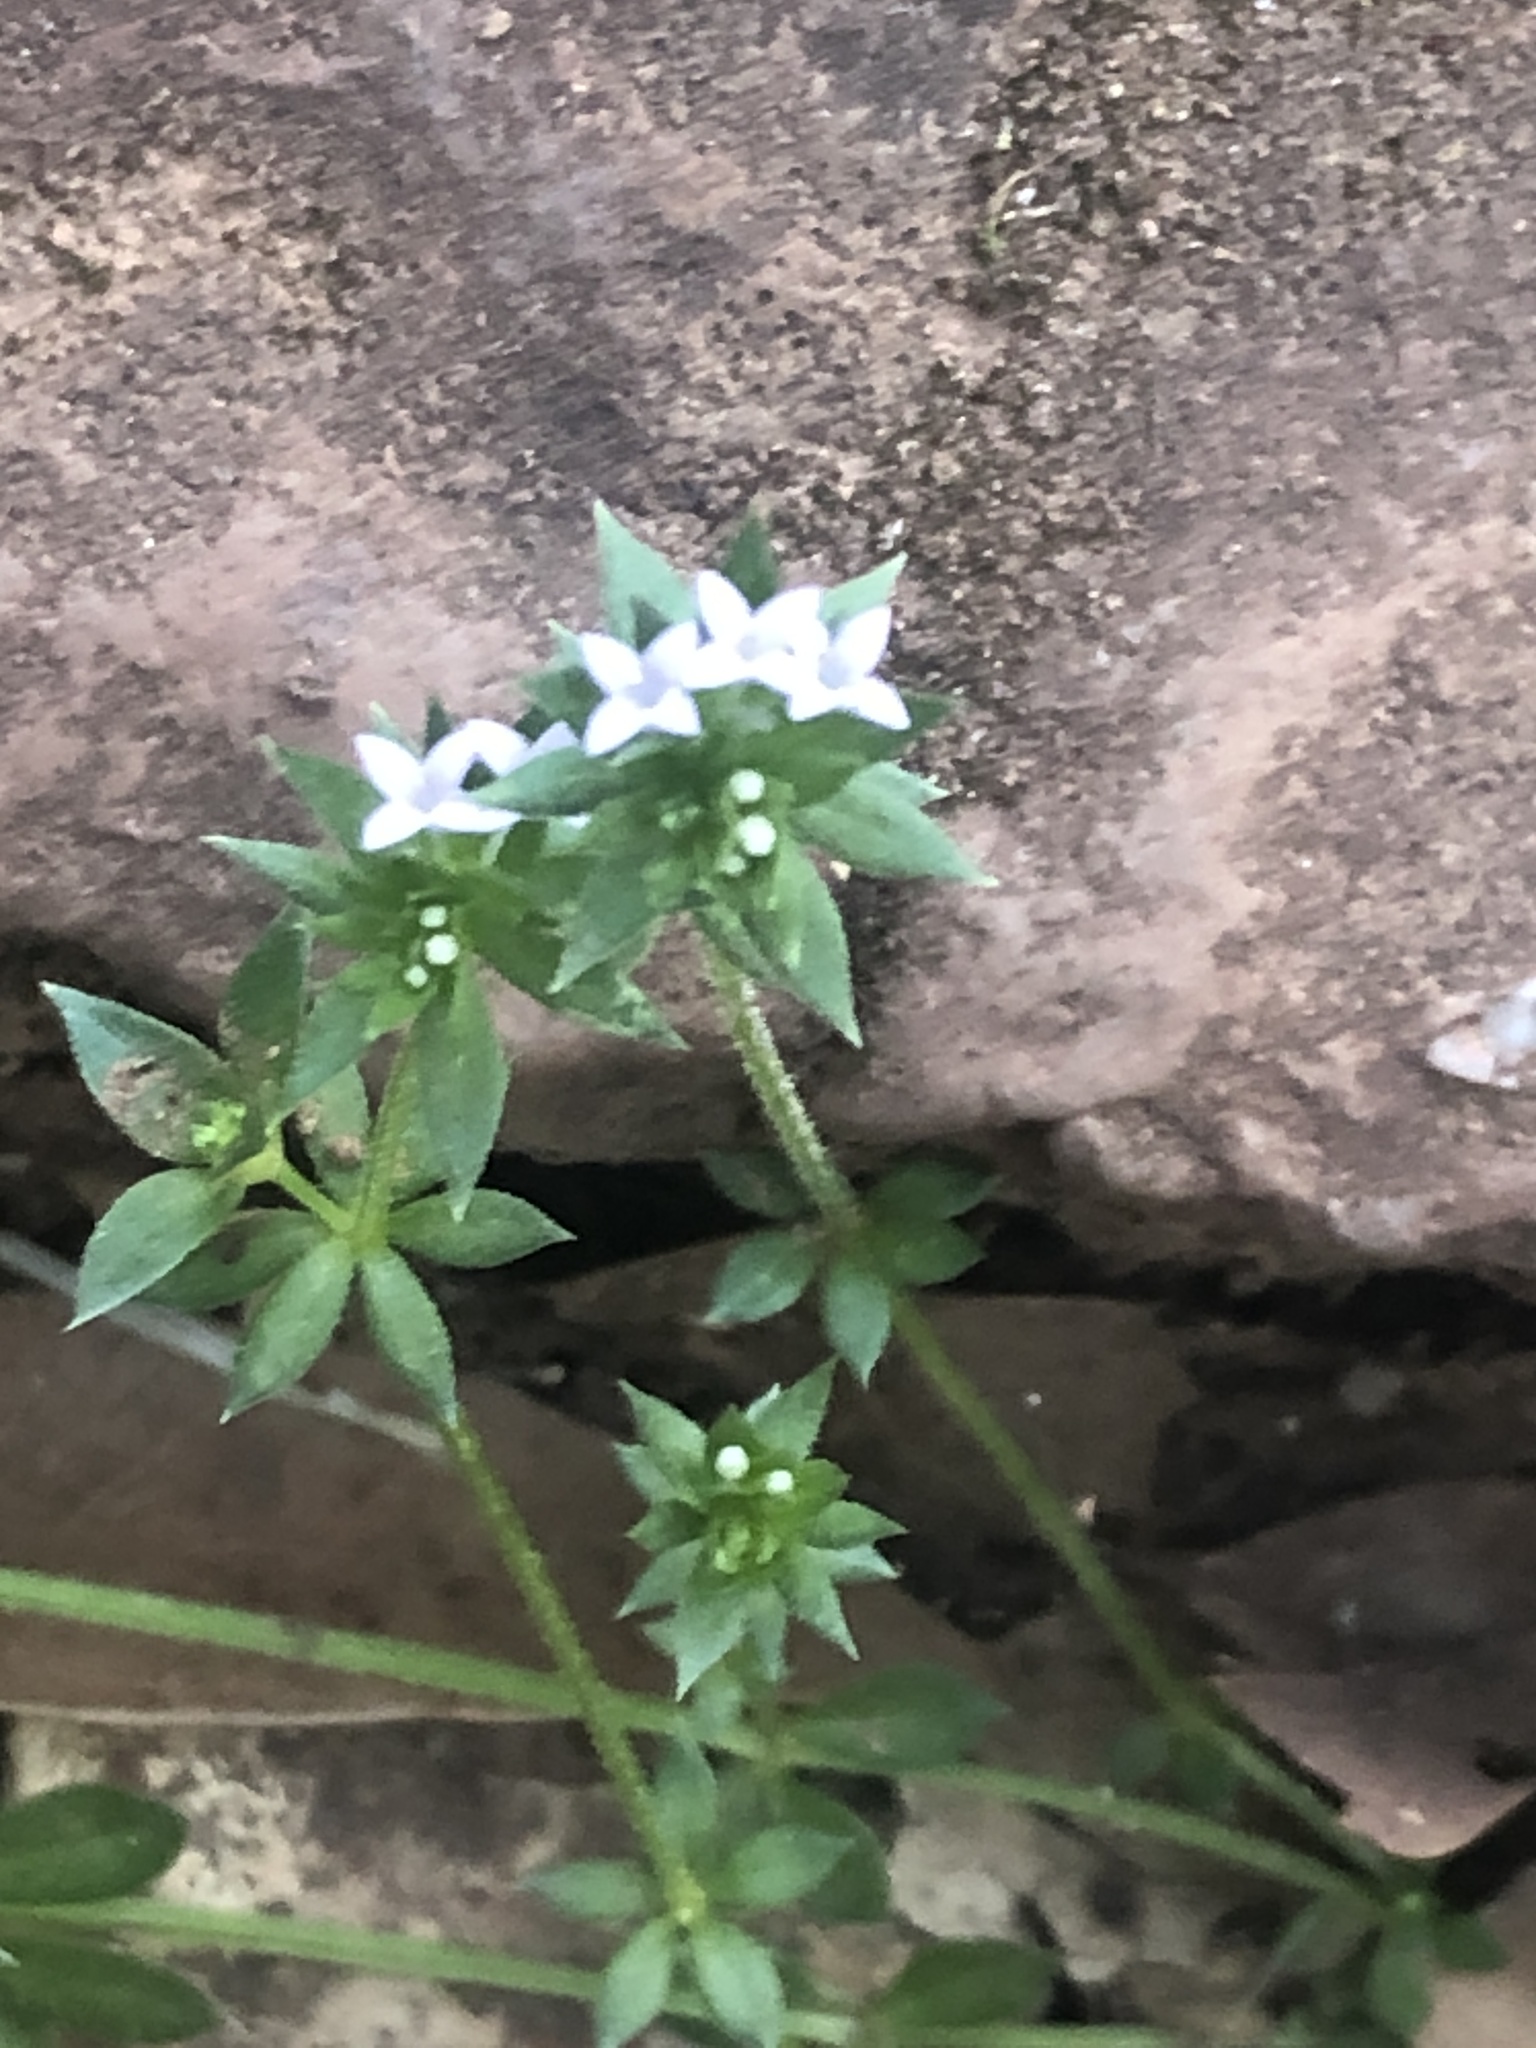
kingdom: Plantae
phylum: Tracheophyta
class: Magnoliopsida
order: Gentianales
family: Rubiaceae
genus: Sherardia
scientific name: Sherardia arvensis
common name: Field madder
